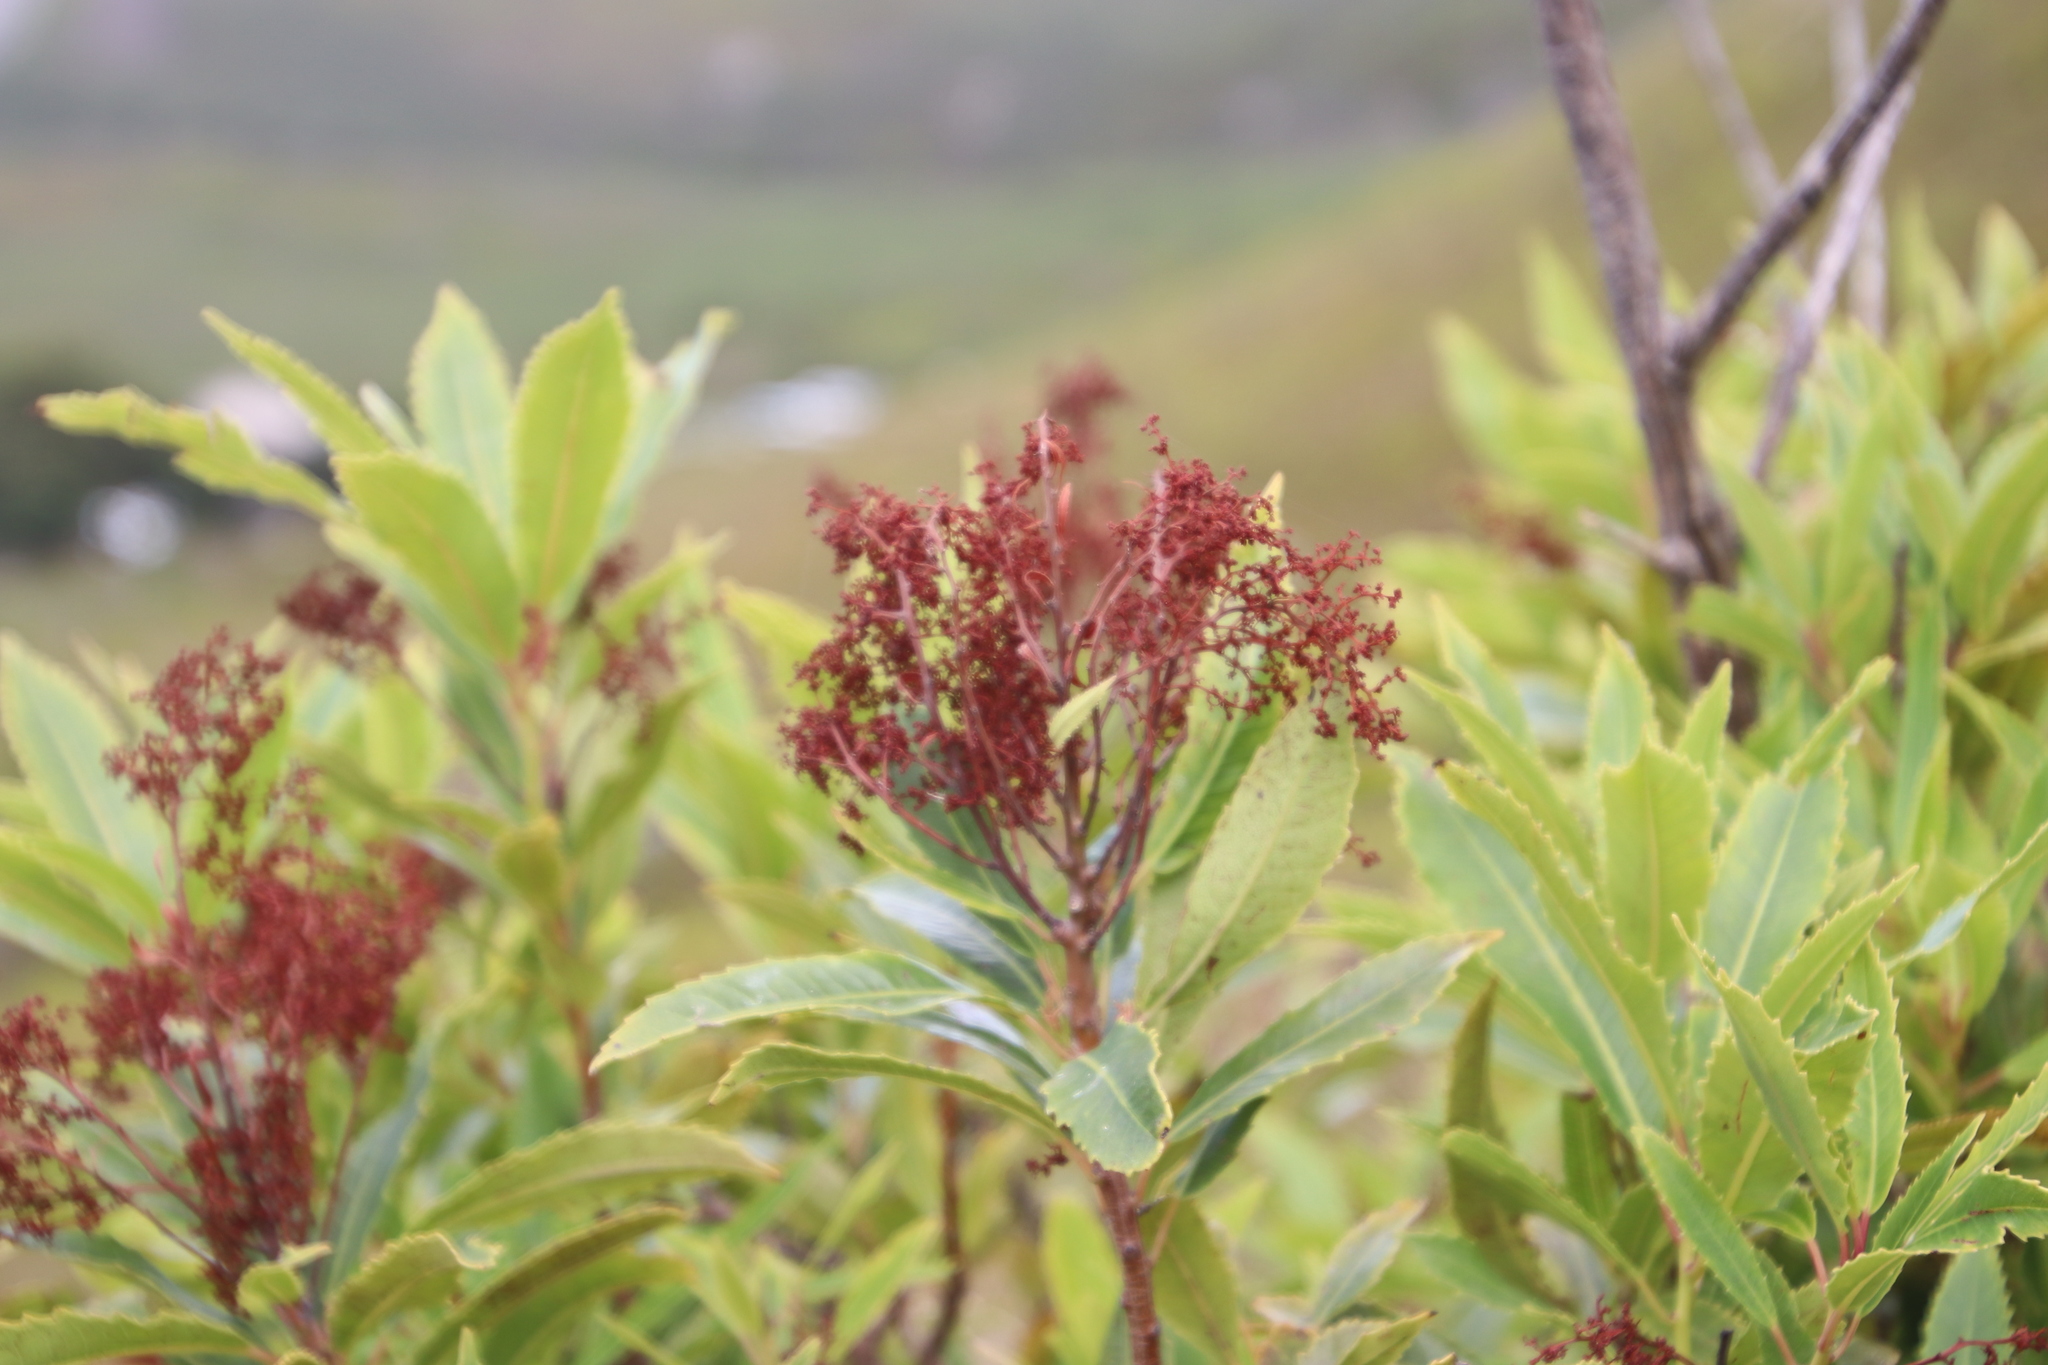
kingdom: Plantae
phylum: Tracheophyta
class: Magnoliopsida
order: Sapindales
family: Anacardiaceae
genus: Laurophyllus
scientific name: Laurophyllus capensis
